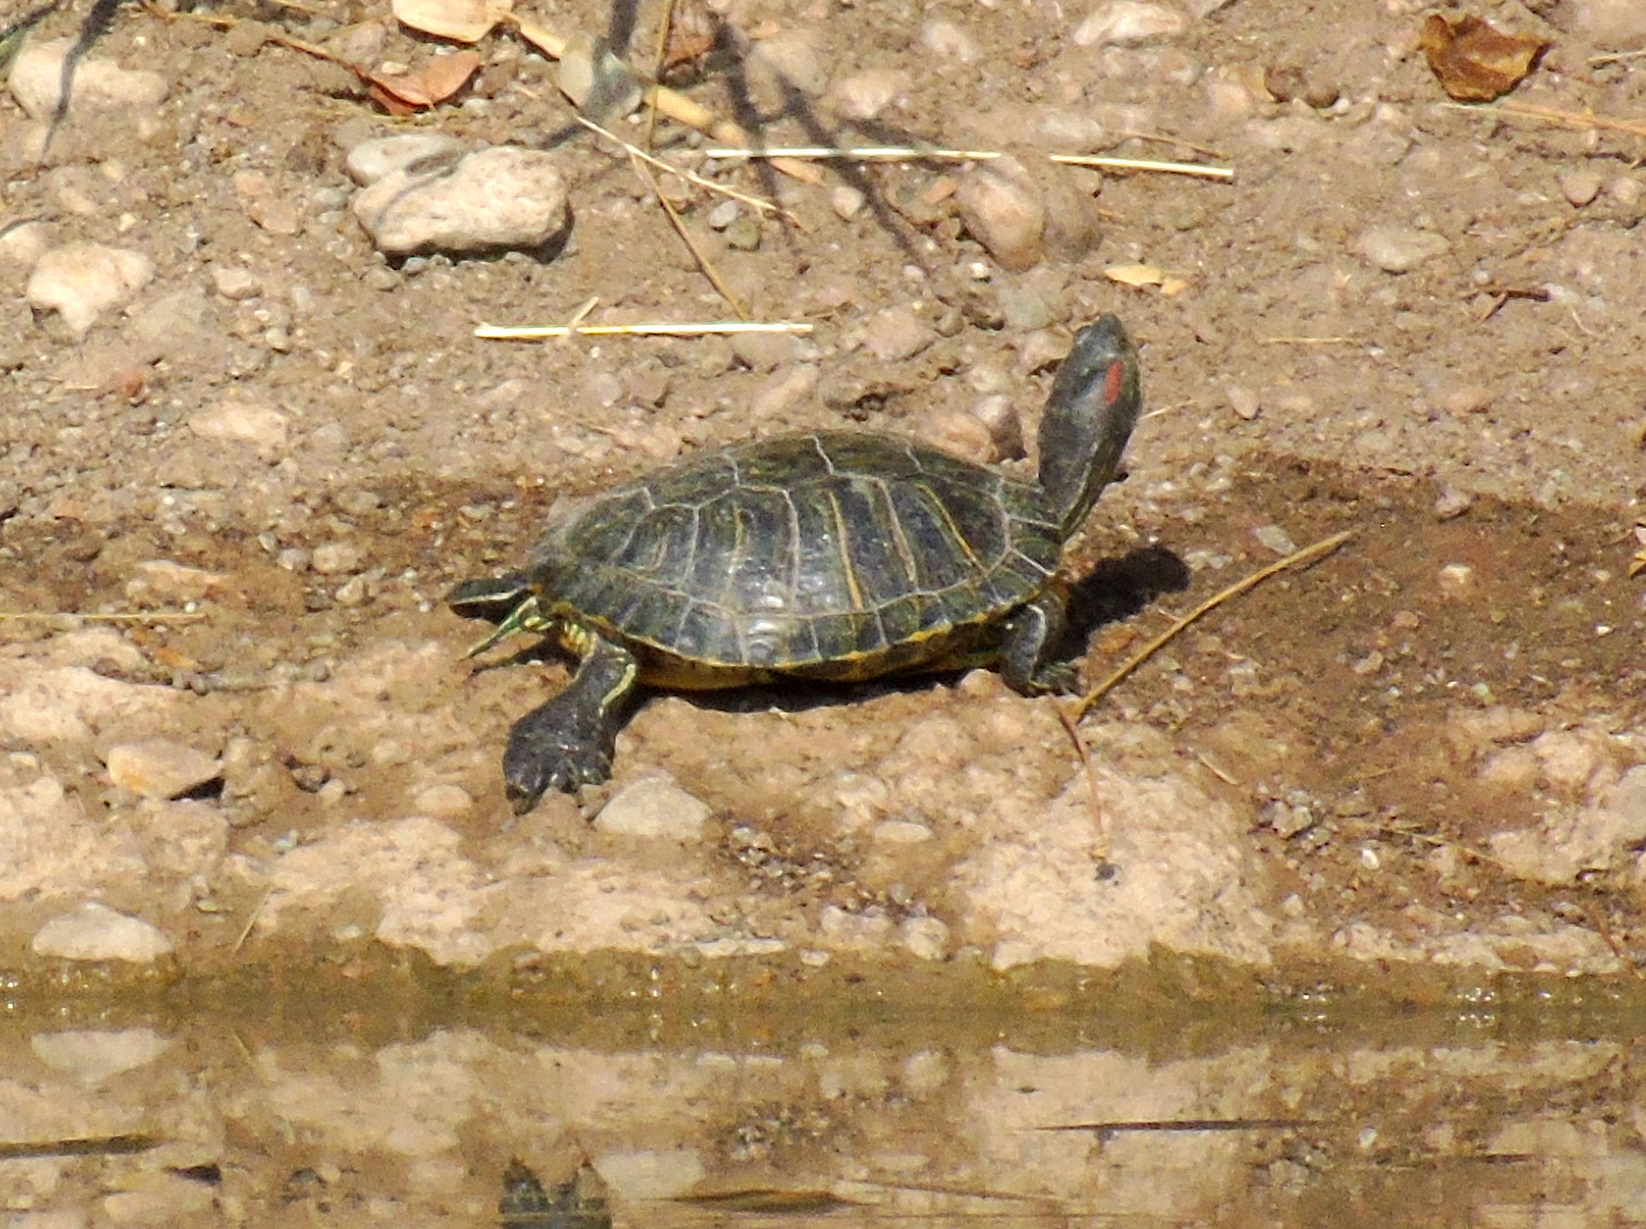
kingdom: Animalia
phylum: Chordata
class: Testudines
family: Emydidae
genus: Trachemys
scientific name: Trachemys scripta
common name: Slider
